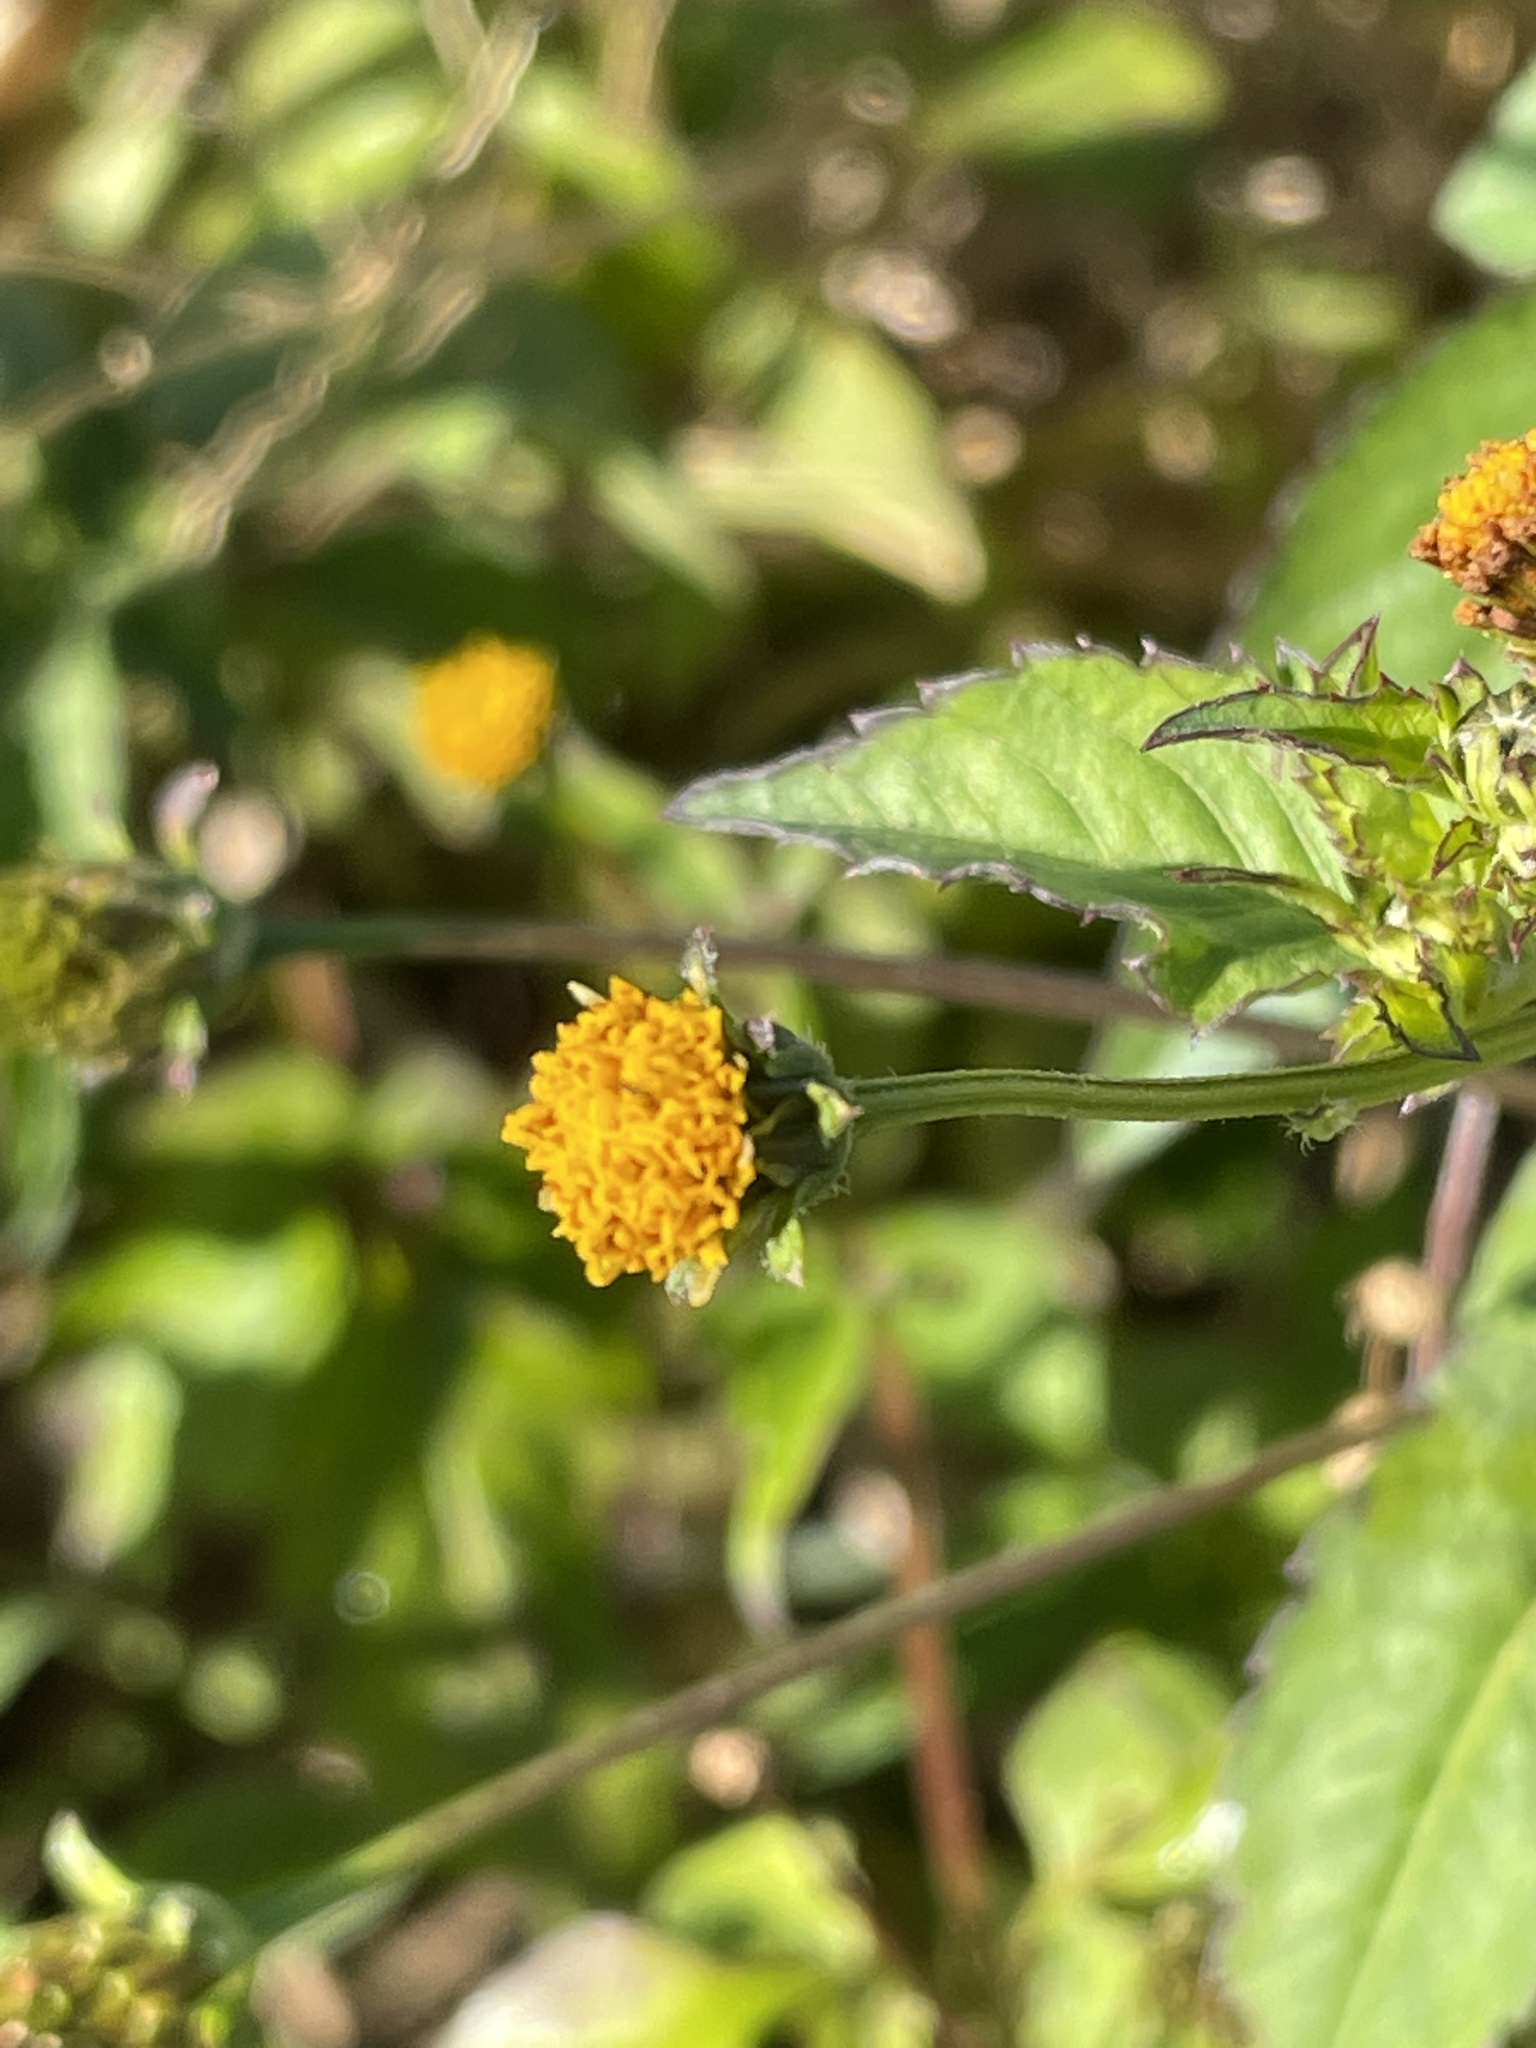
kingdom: Plantae
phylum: Tracheophyta
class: Magnoliopsida
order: Asterales
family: Asteraceae
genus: Bidens
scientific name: Bidens pilosa
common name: Black-jack
